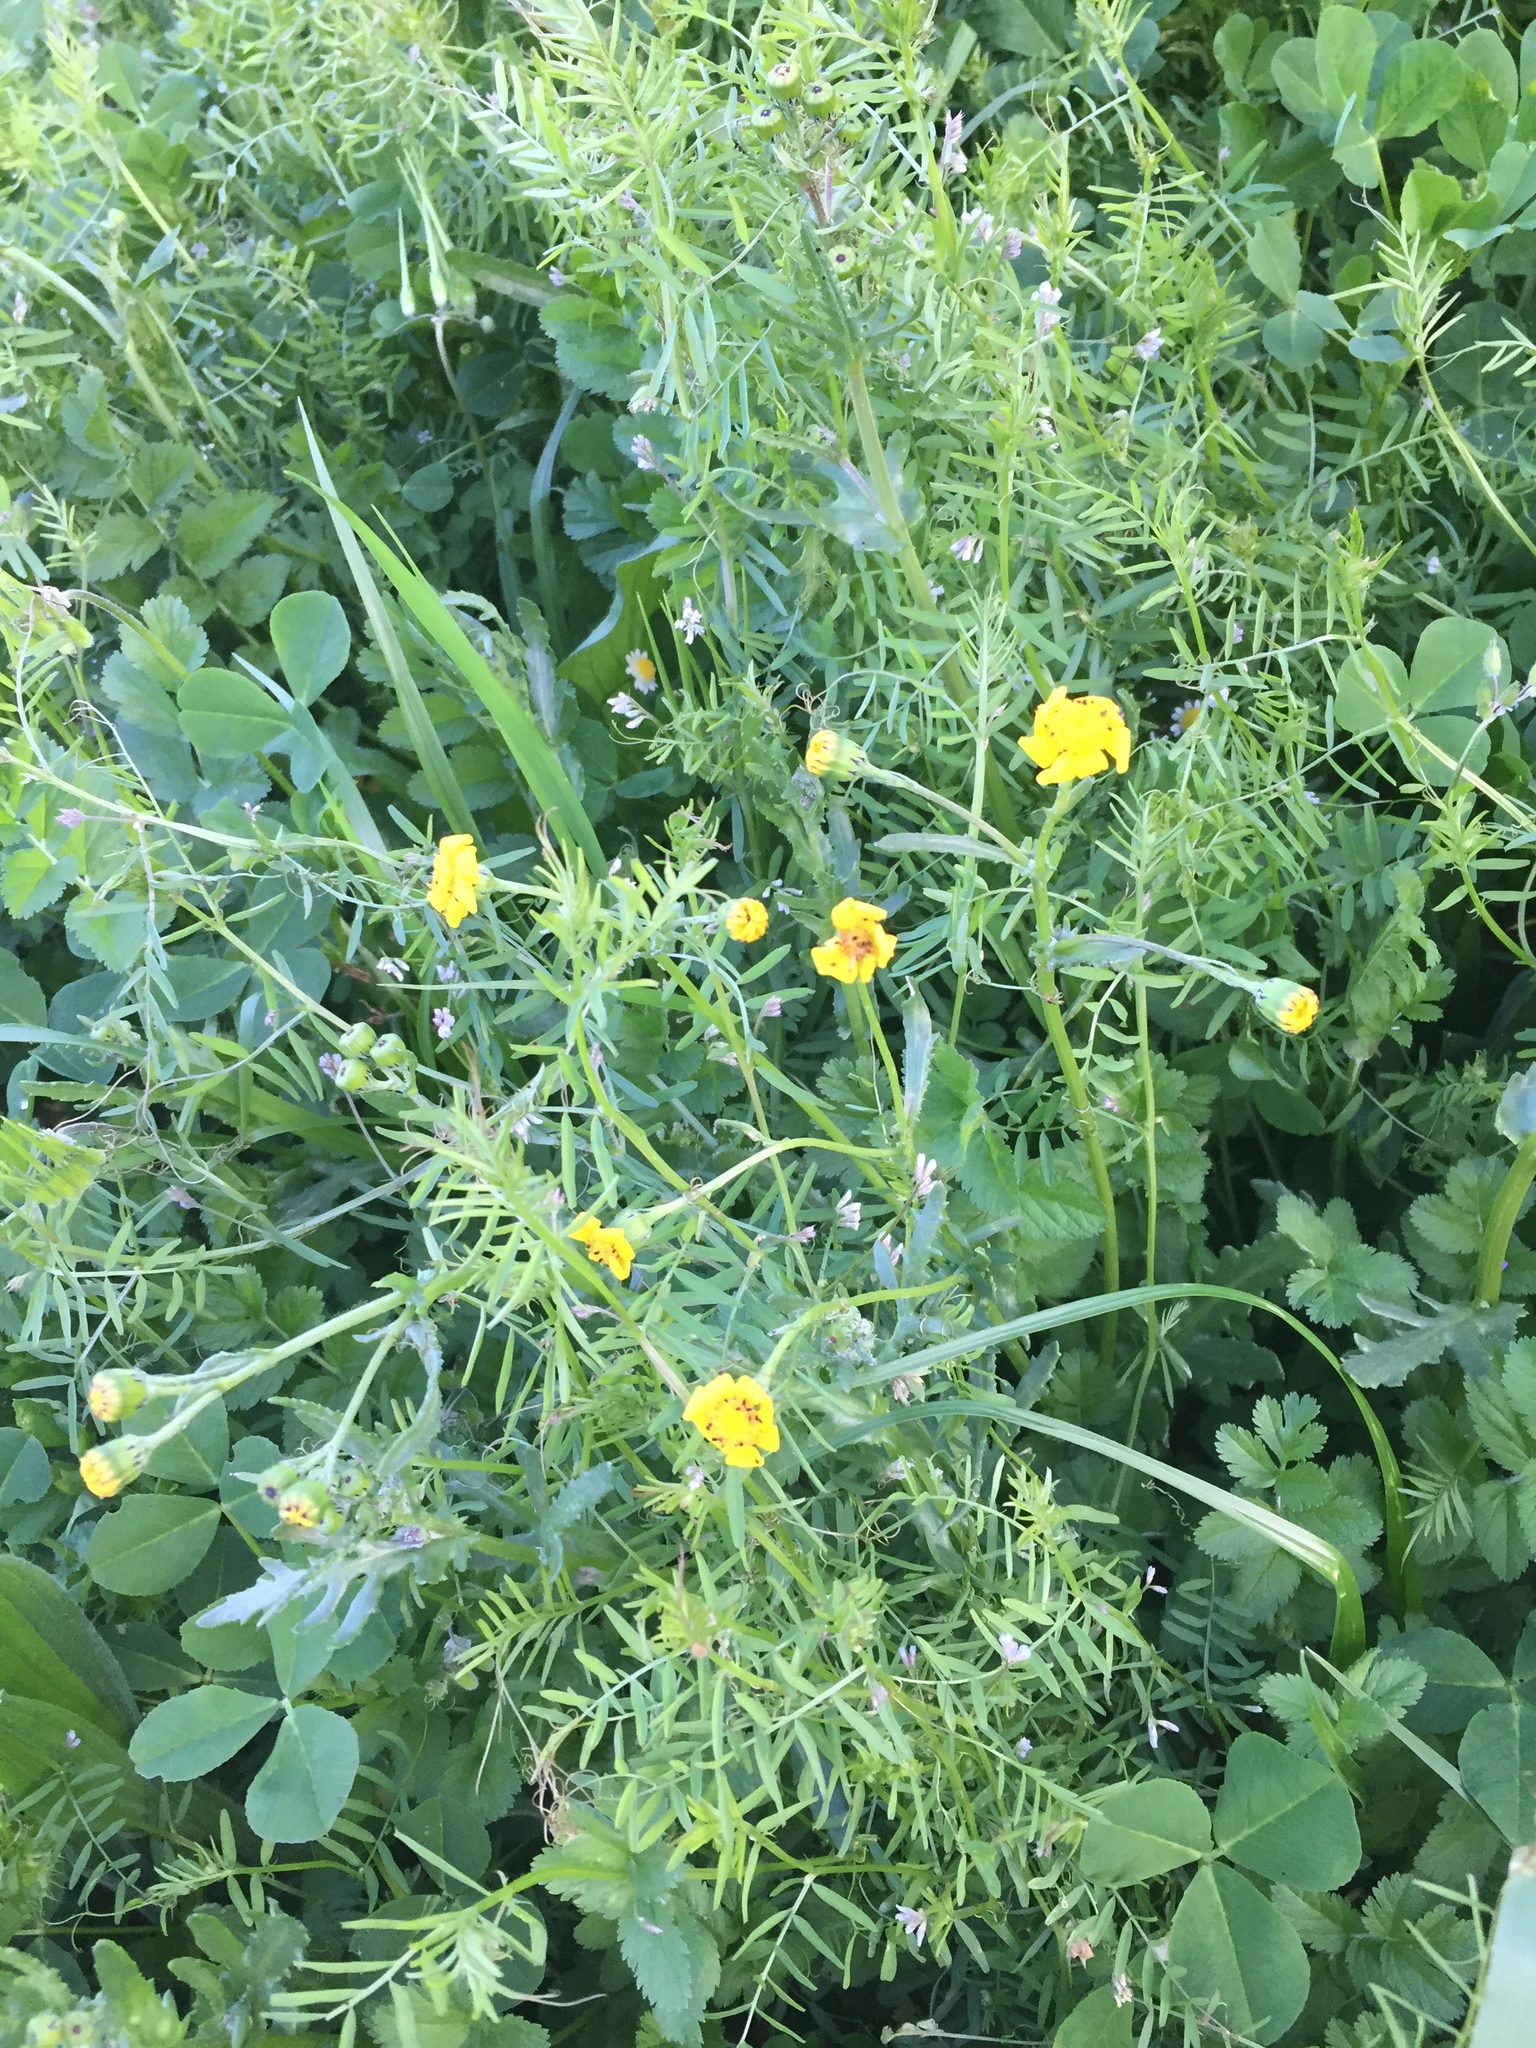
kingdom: Plantae
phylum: Tracheophyta
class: Magnoliopsida
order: Asterales
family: Asteraceae
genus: Senecio
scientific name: Senecio littoreus
